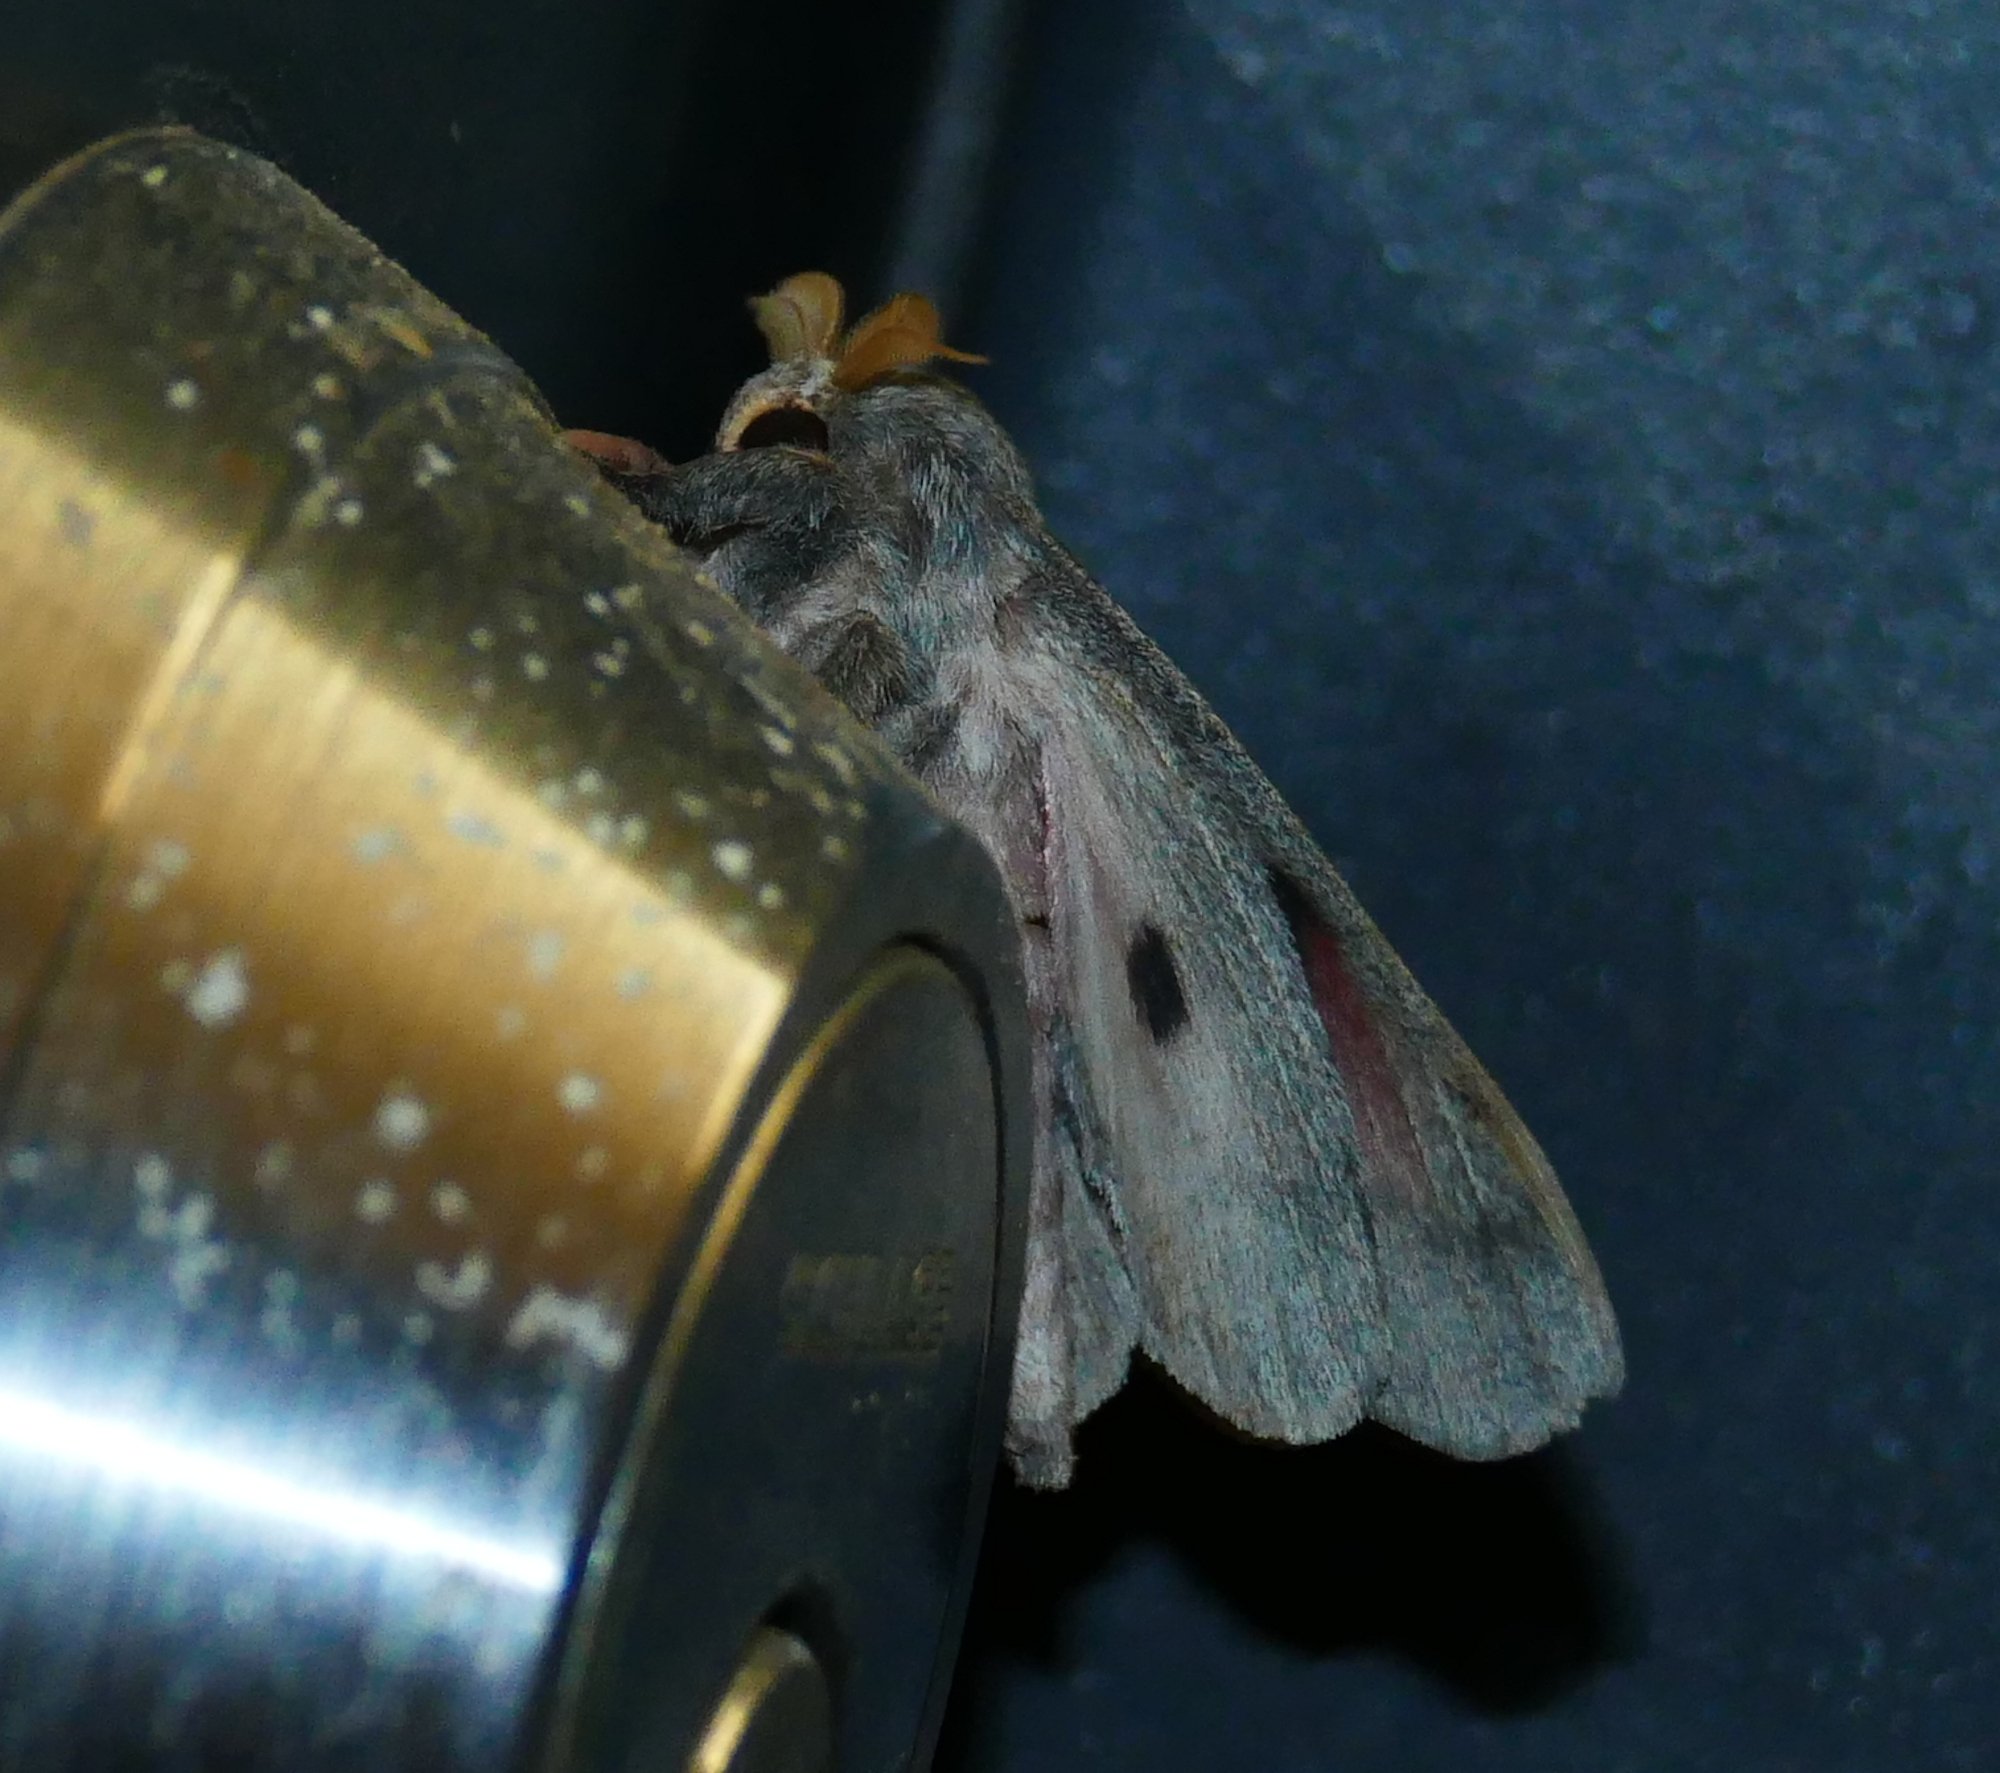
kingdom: Animalia
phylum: Arthropoda
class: Insecta
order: Lepidoptera
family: Saturniidae
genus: Syssphinx
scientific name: Syssphinx hubbardi
